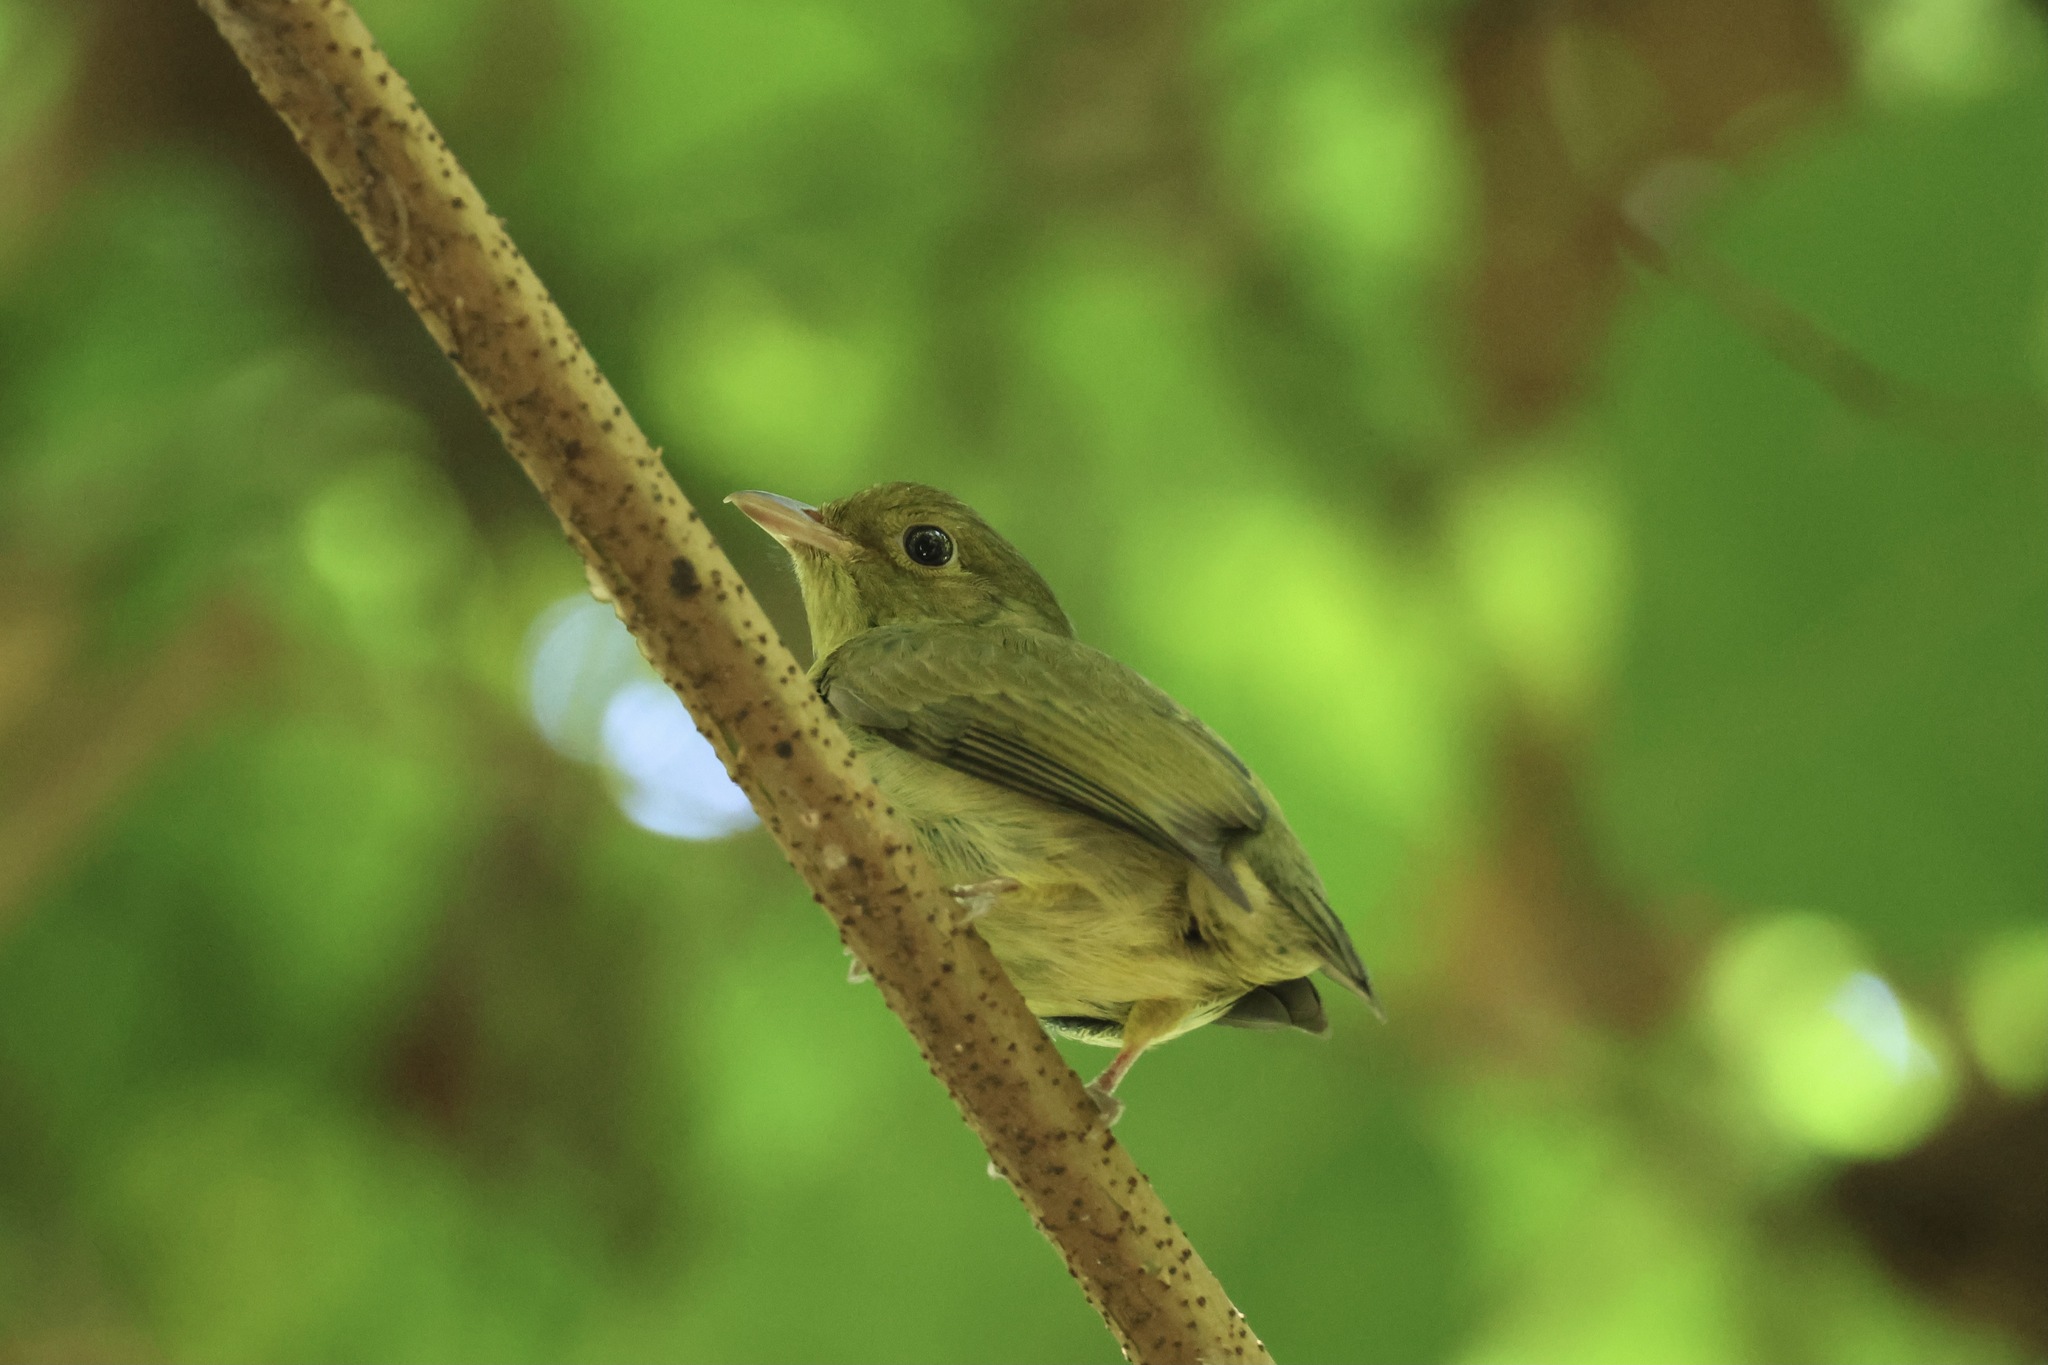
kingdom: Animalia
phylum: Chordata
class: Aves
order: Passeriformes
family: Pipridae
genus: Pipra
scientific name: Pipra mentalis
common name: Red-capped manakin
